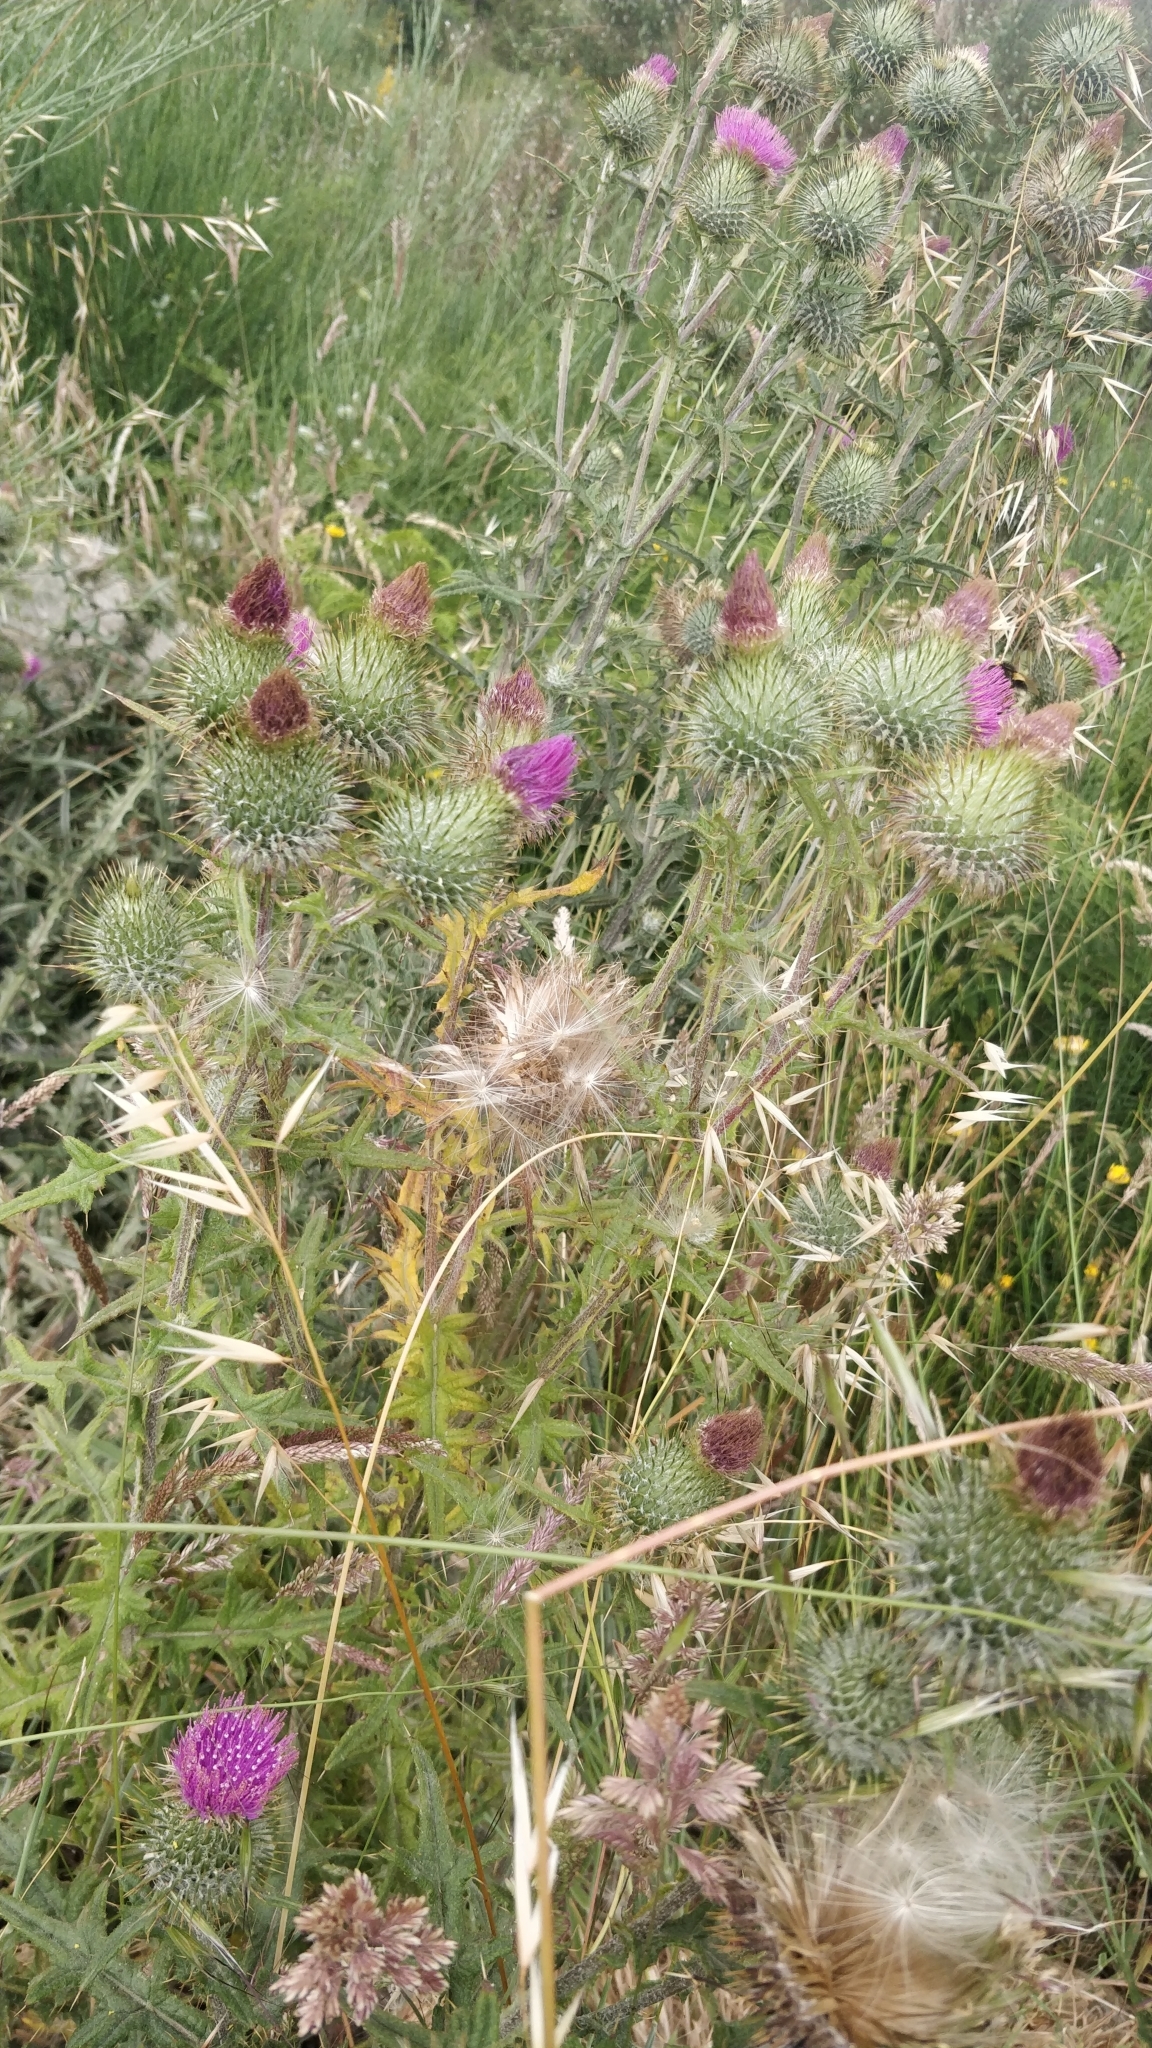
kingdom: Plantae
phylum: Tracheophyta
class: Magnoliopsida
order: Asterales
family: Asteraceae
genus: Cirsium
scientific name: Cirsium vulgare
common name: Bull thistle
